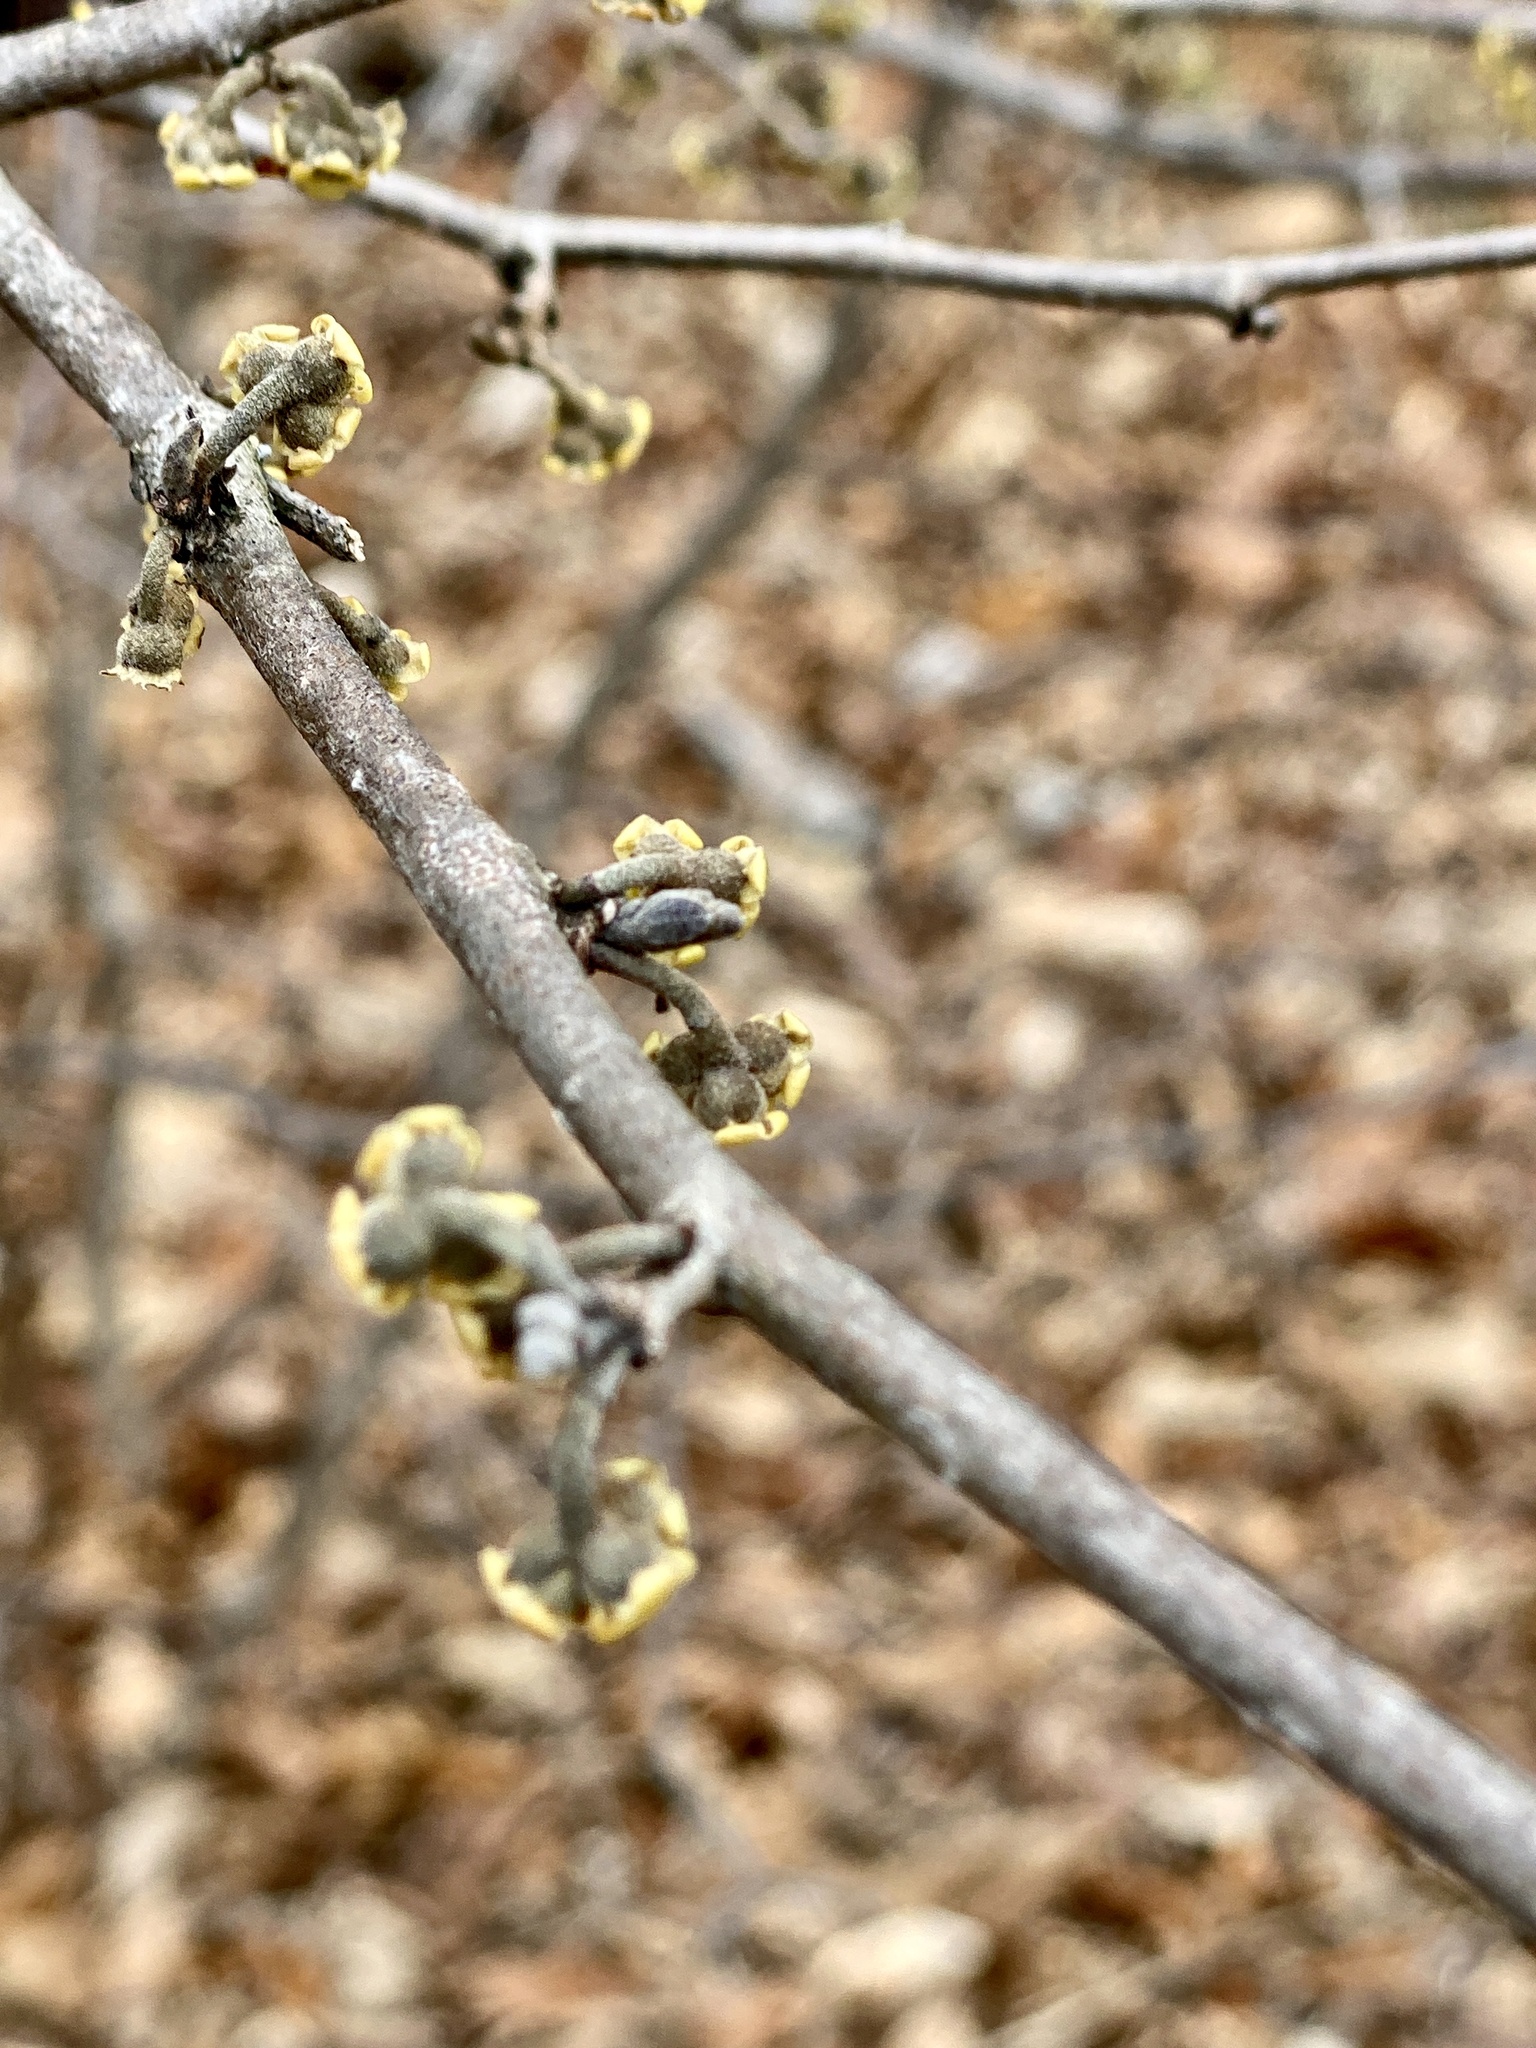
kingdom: Plantae
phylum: Tracheophyta
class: Magnoliopsida
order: Saxifragales
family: Hamamelidaceae
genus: Hamamelis
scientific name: Hamamelis virginiana
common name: Witch-hazel
